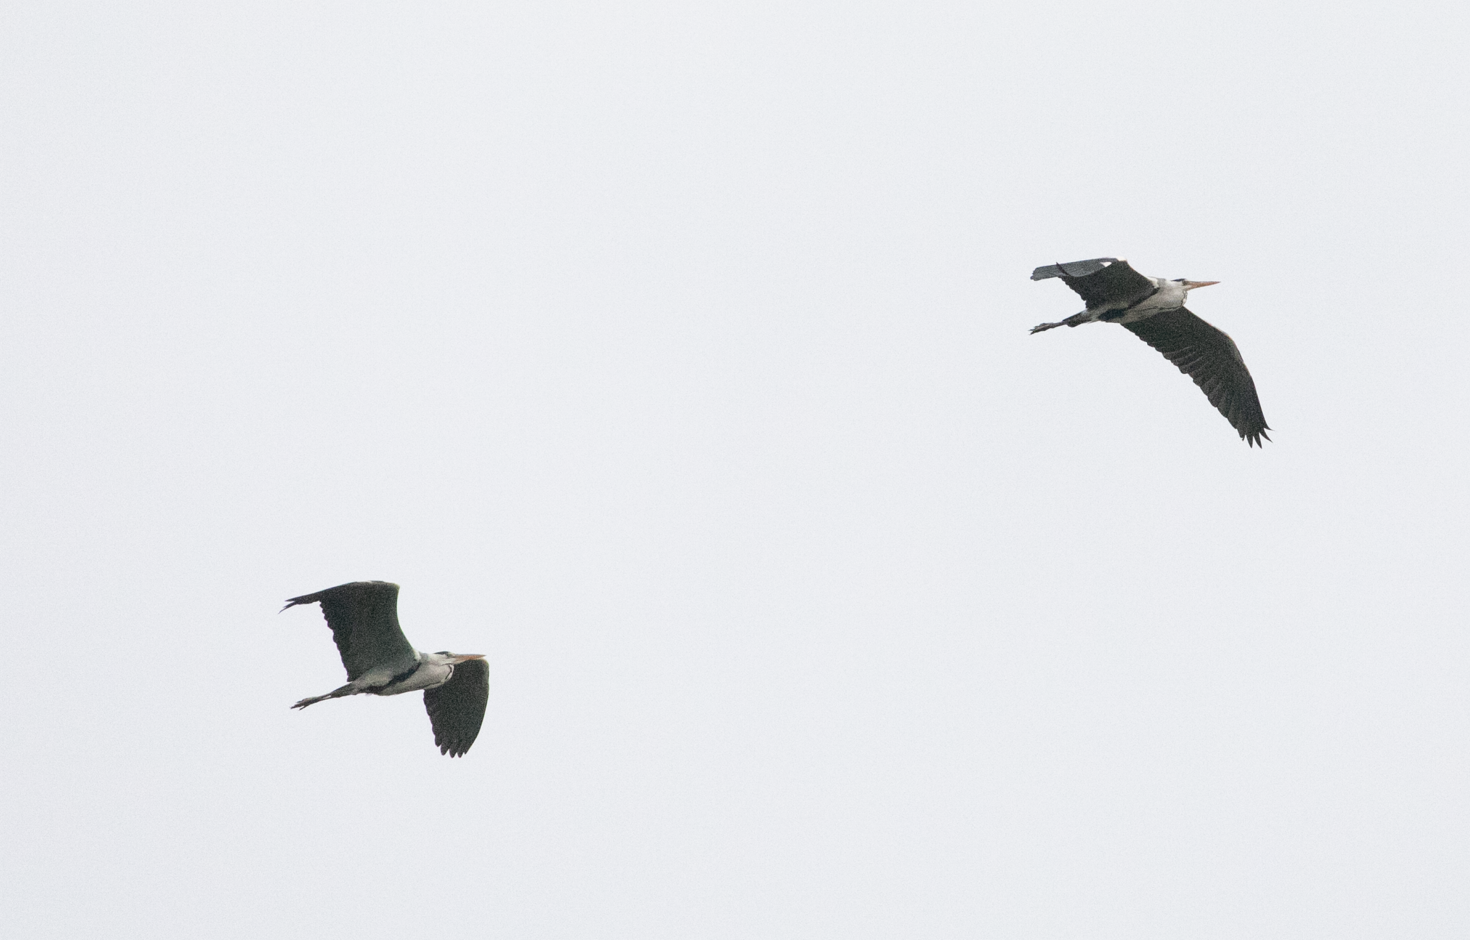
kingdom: Animalia
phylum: Chordata
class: Aves
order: Pelecaniformes
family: Ardeidae
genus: Ardea
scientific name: Ardea cinerea
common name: Grey heron
